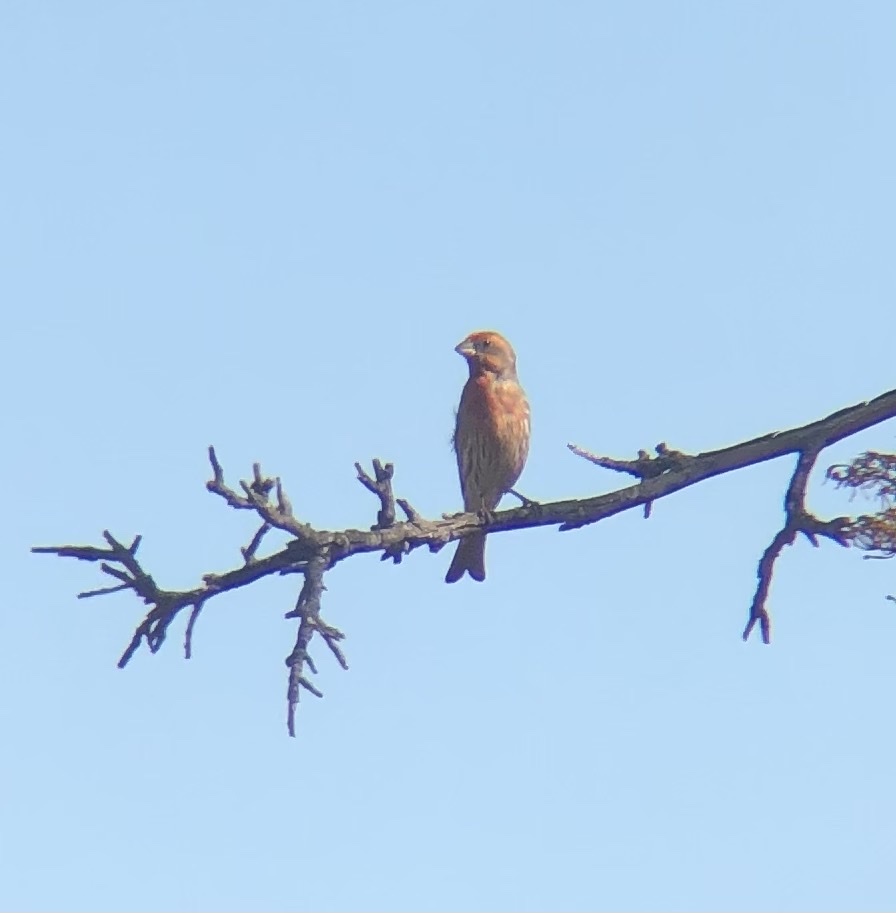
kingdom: Animalia
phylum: Chordata
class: Aves
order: Passeriformes
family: Fringillidae
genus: Haemorhous
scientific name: Haemorhous mexicanus
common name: House finch
